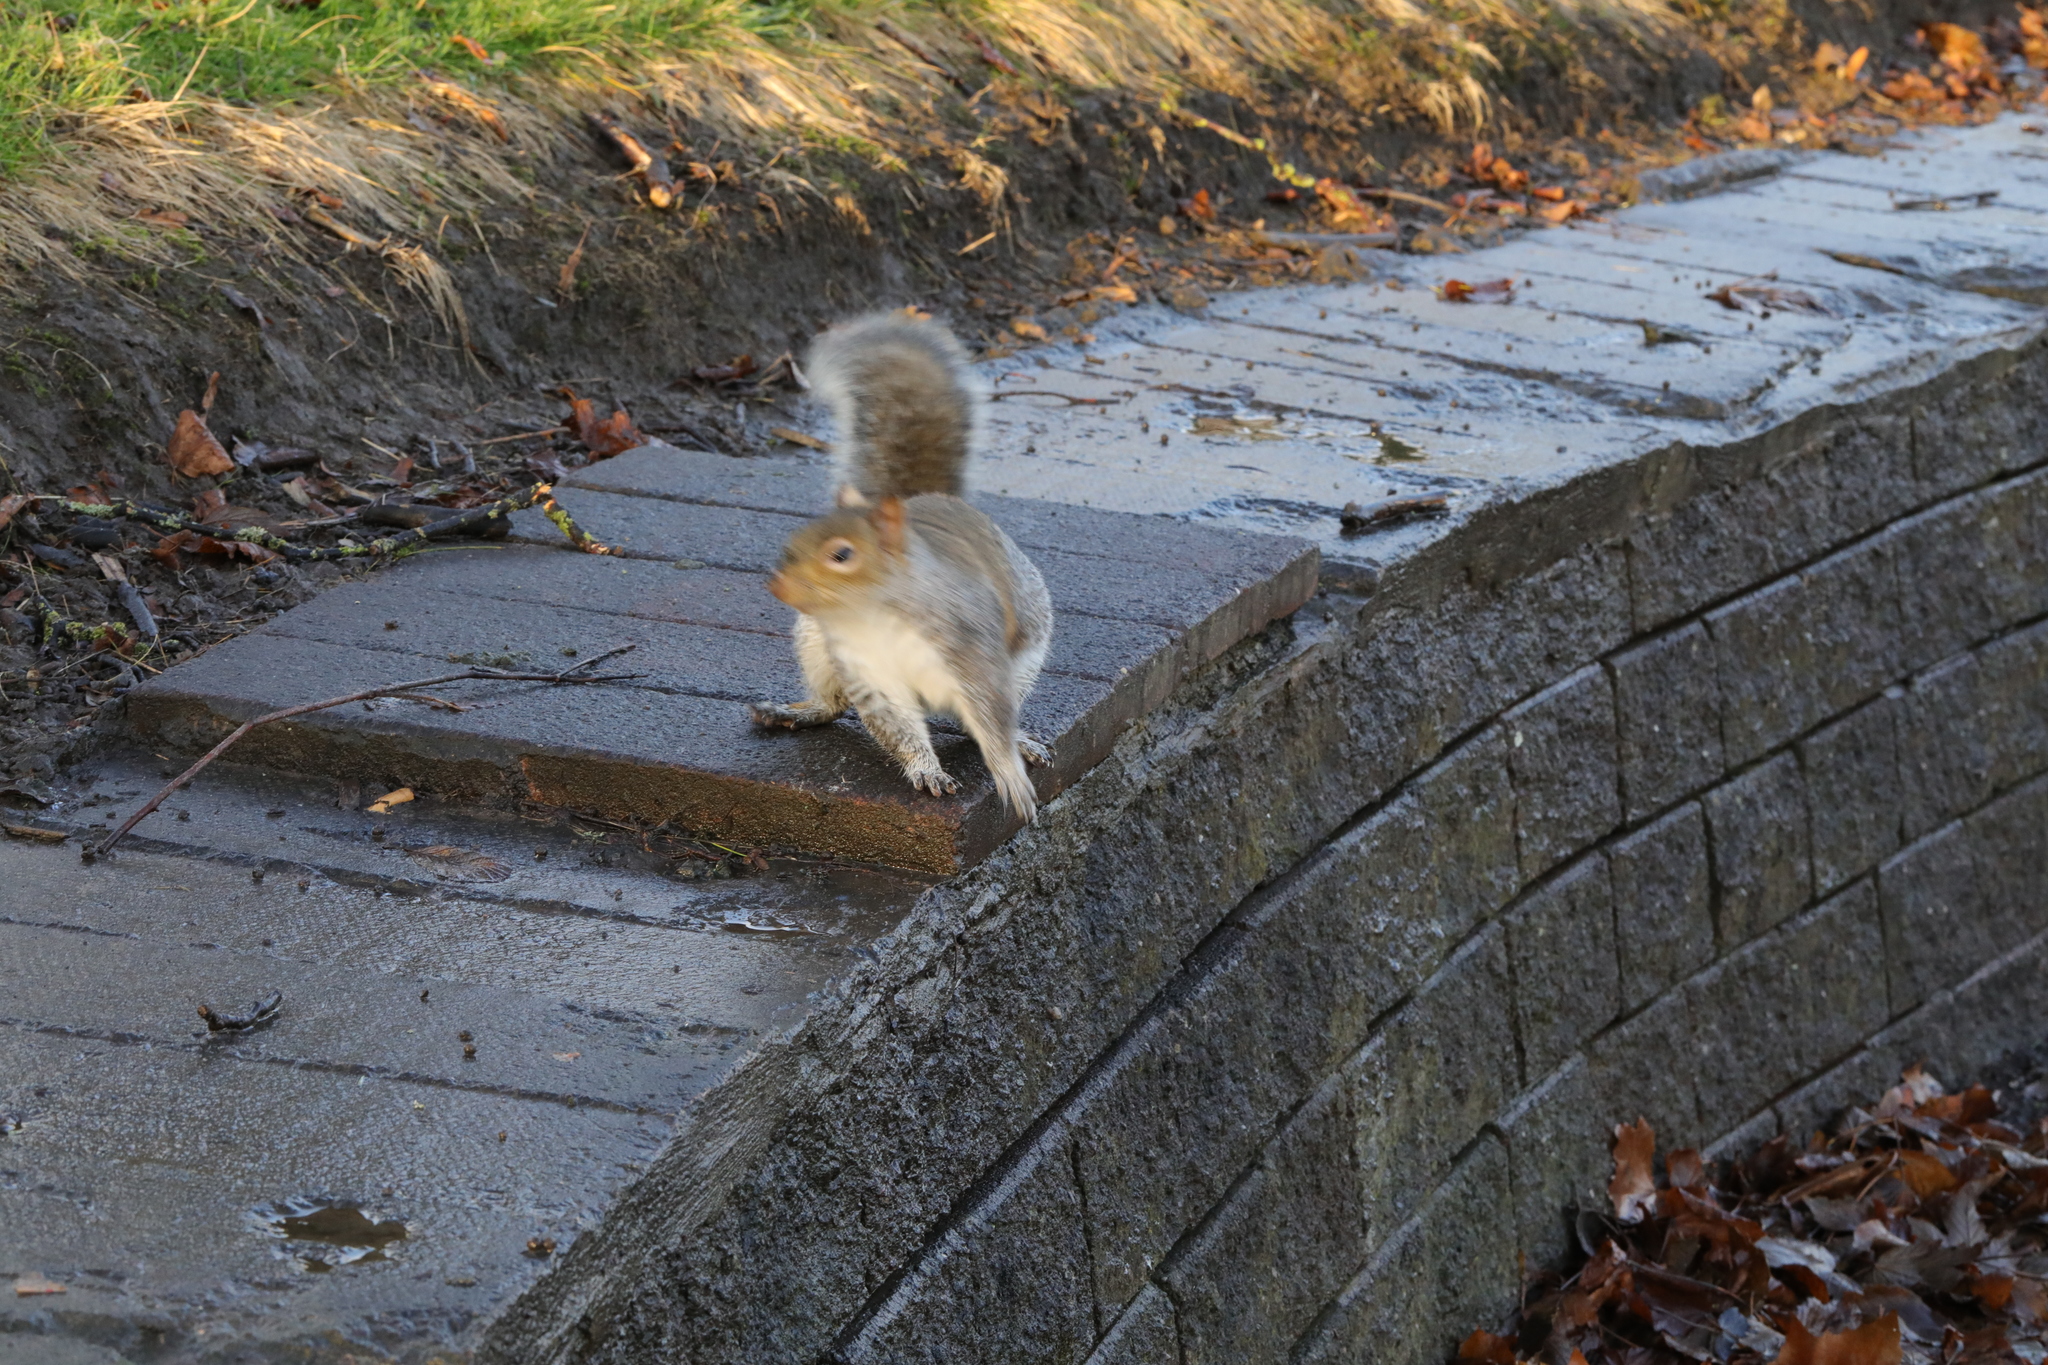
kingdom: Animalia
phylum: Chordata
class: Mammalia
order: Rodentia
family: Sciuridae
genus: Sciurus
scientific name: Sciurus carolinensis
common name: Eastern gray squirrel
